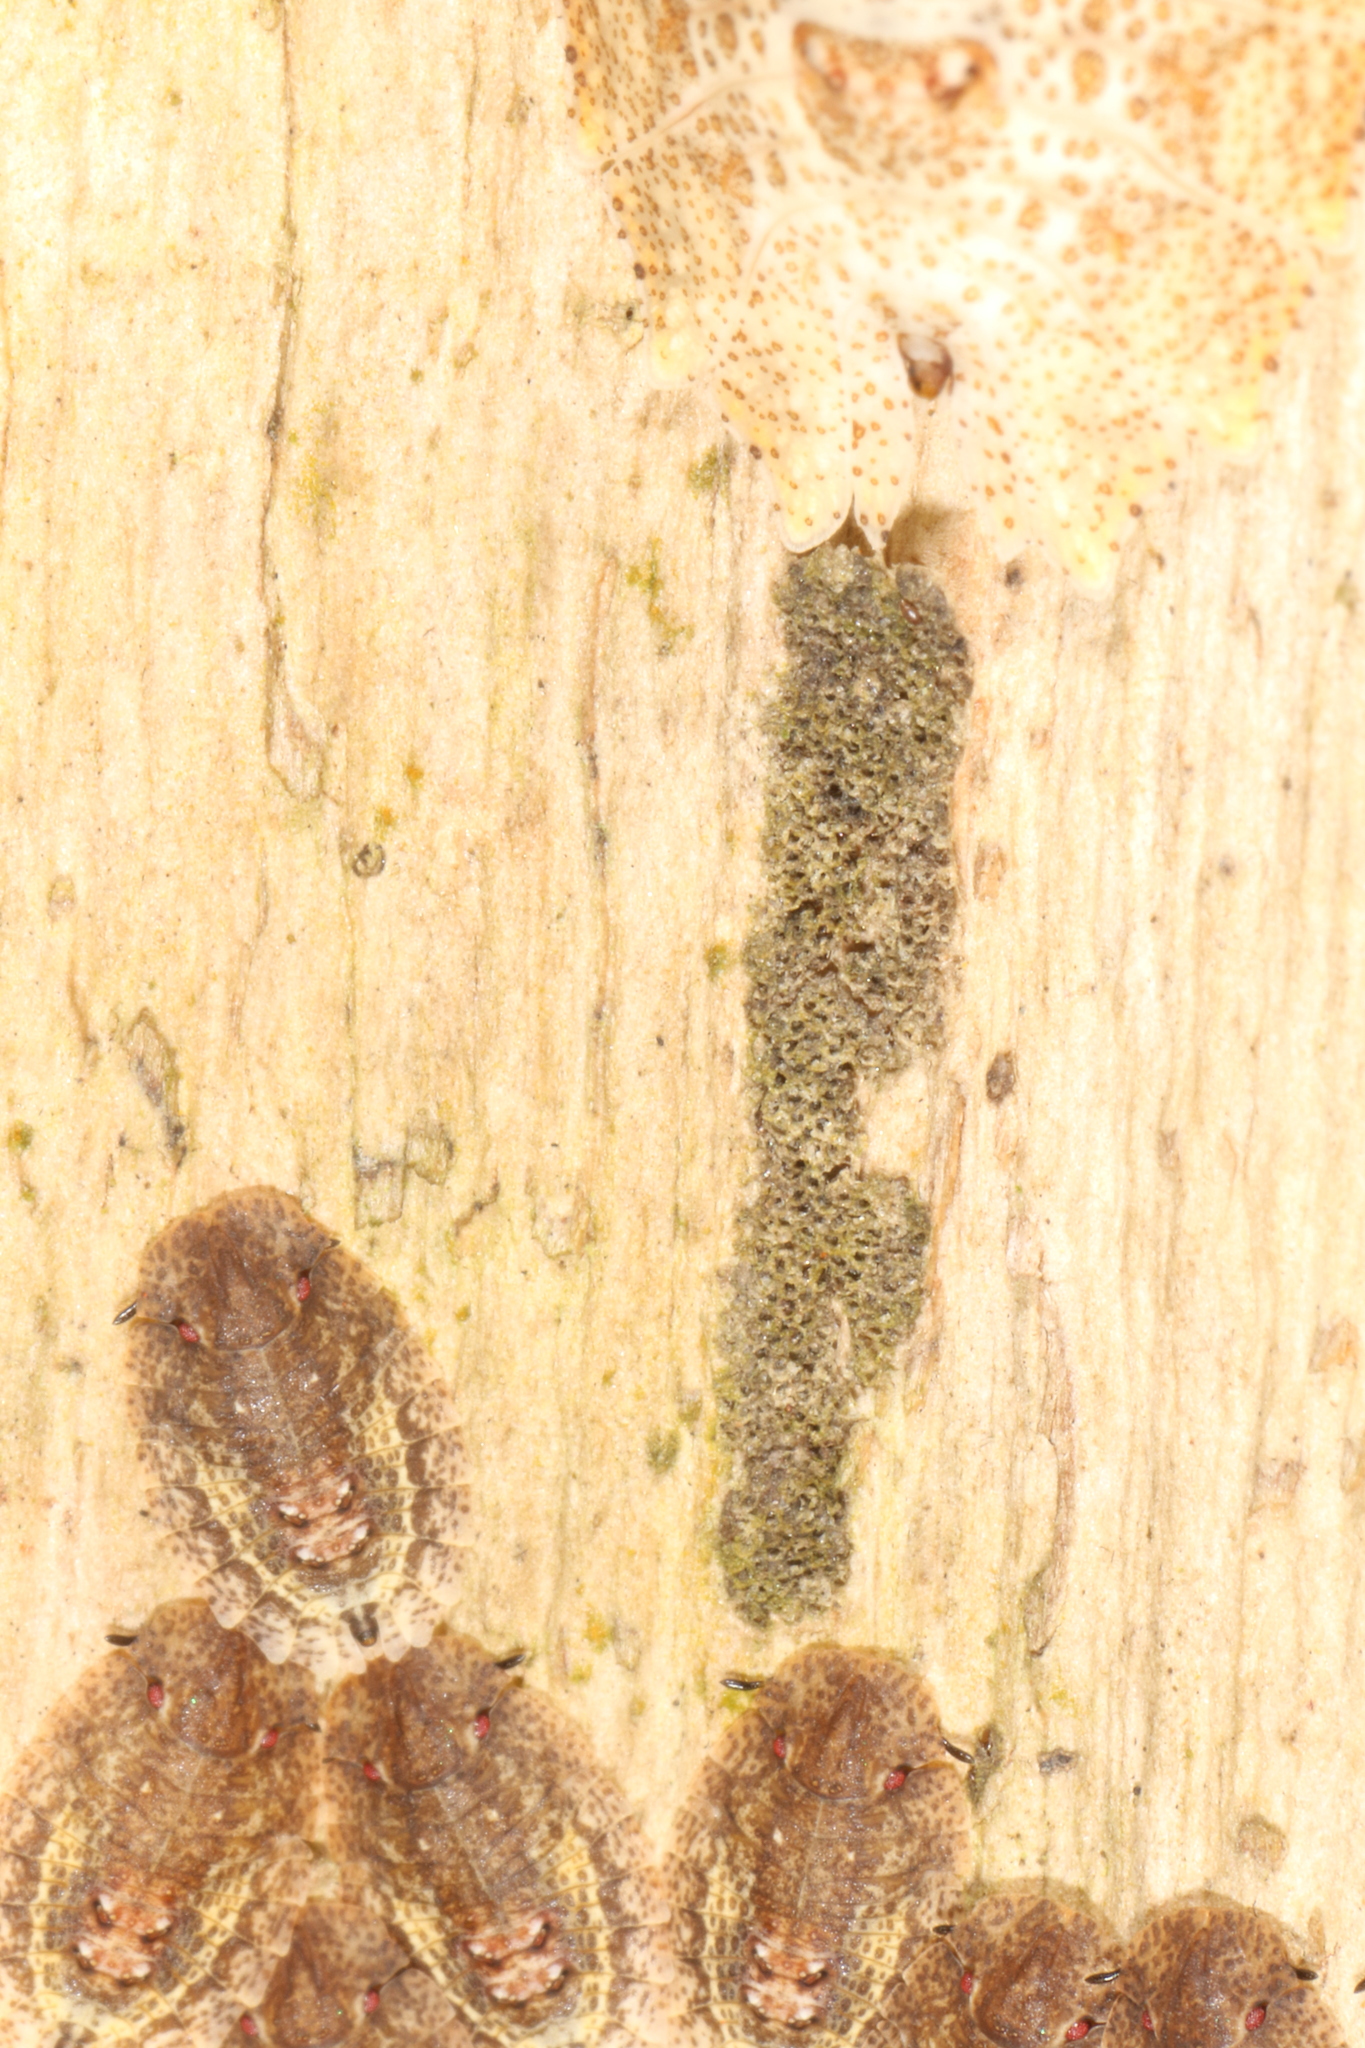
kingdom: Animalia
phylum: Arthropoda
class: Insecta
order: Hemiptera
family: Phleides
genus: Phloea
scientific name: Phloea
